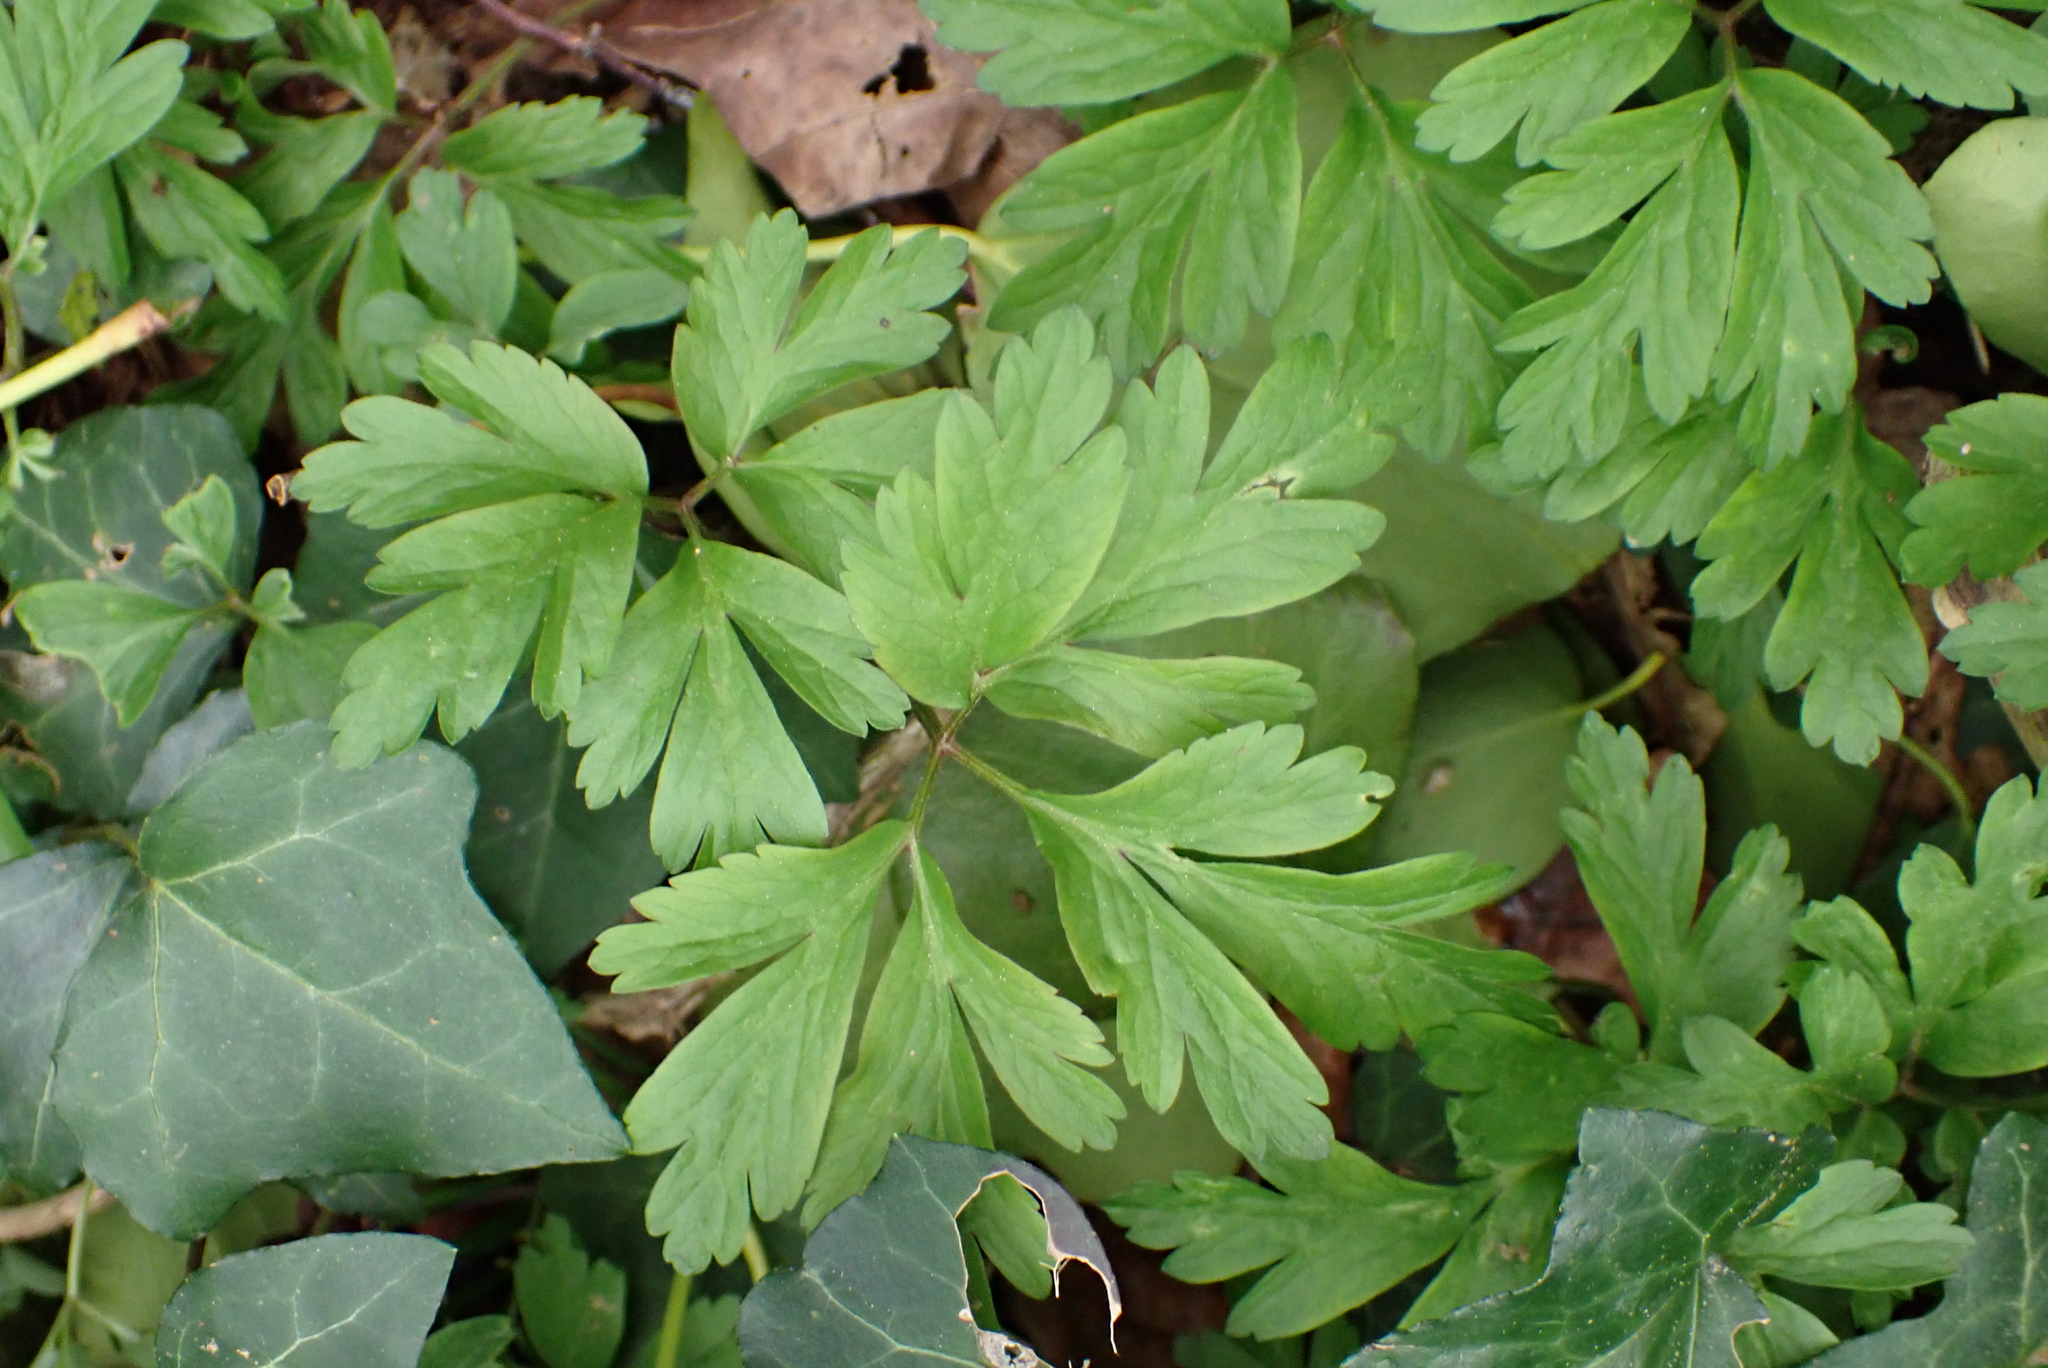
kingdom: Plantae
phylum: Tracheophyta
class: Magnoliopsida
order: Ranunculales
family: Ranunculaceae
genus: Anemone
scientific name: Anemone nemorosa
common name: Wood anemone
